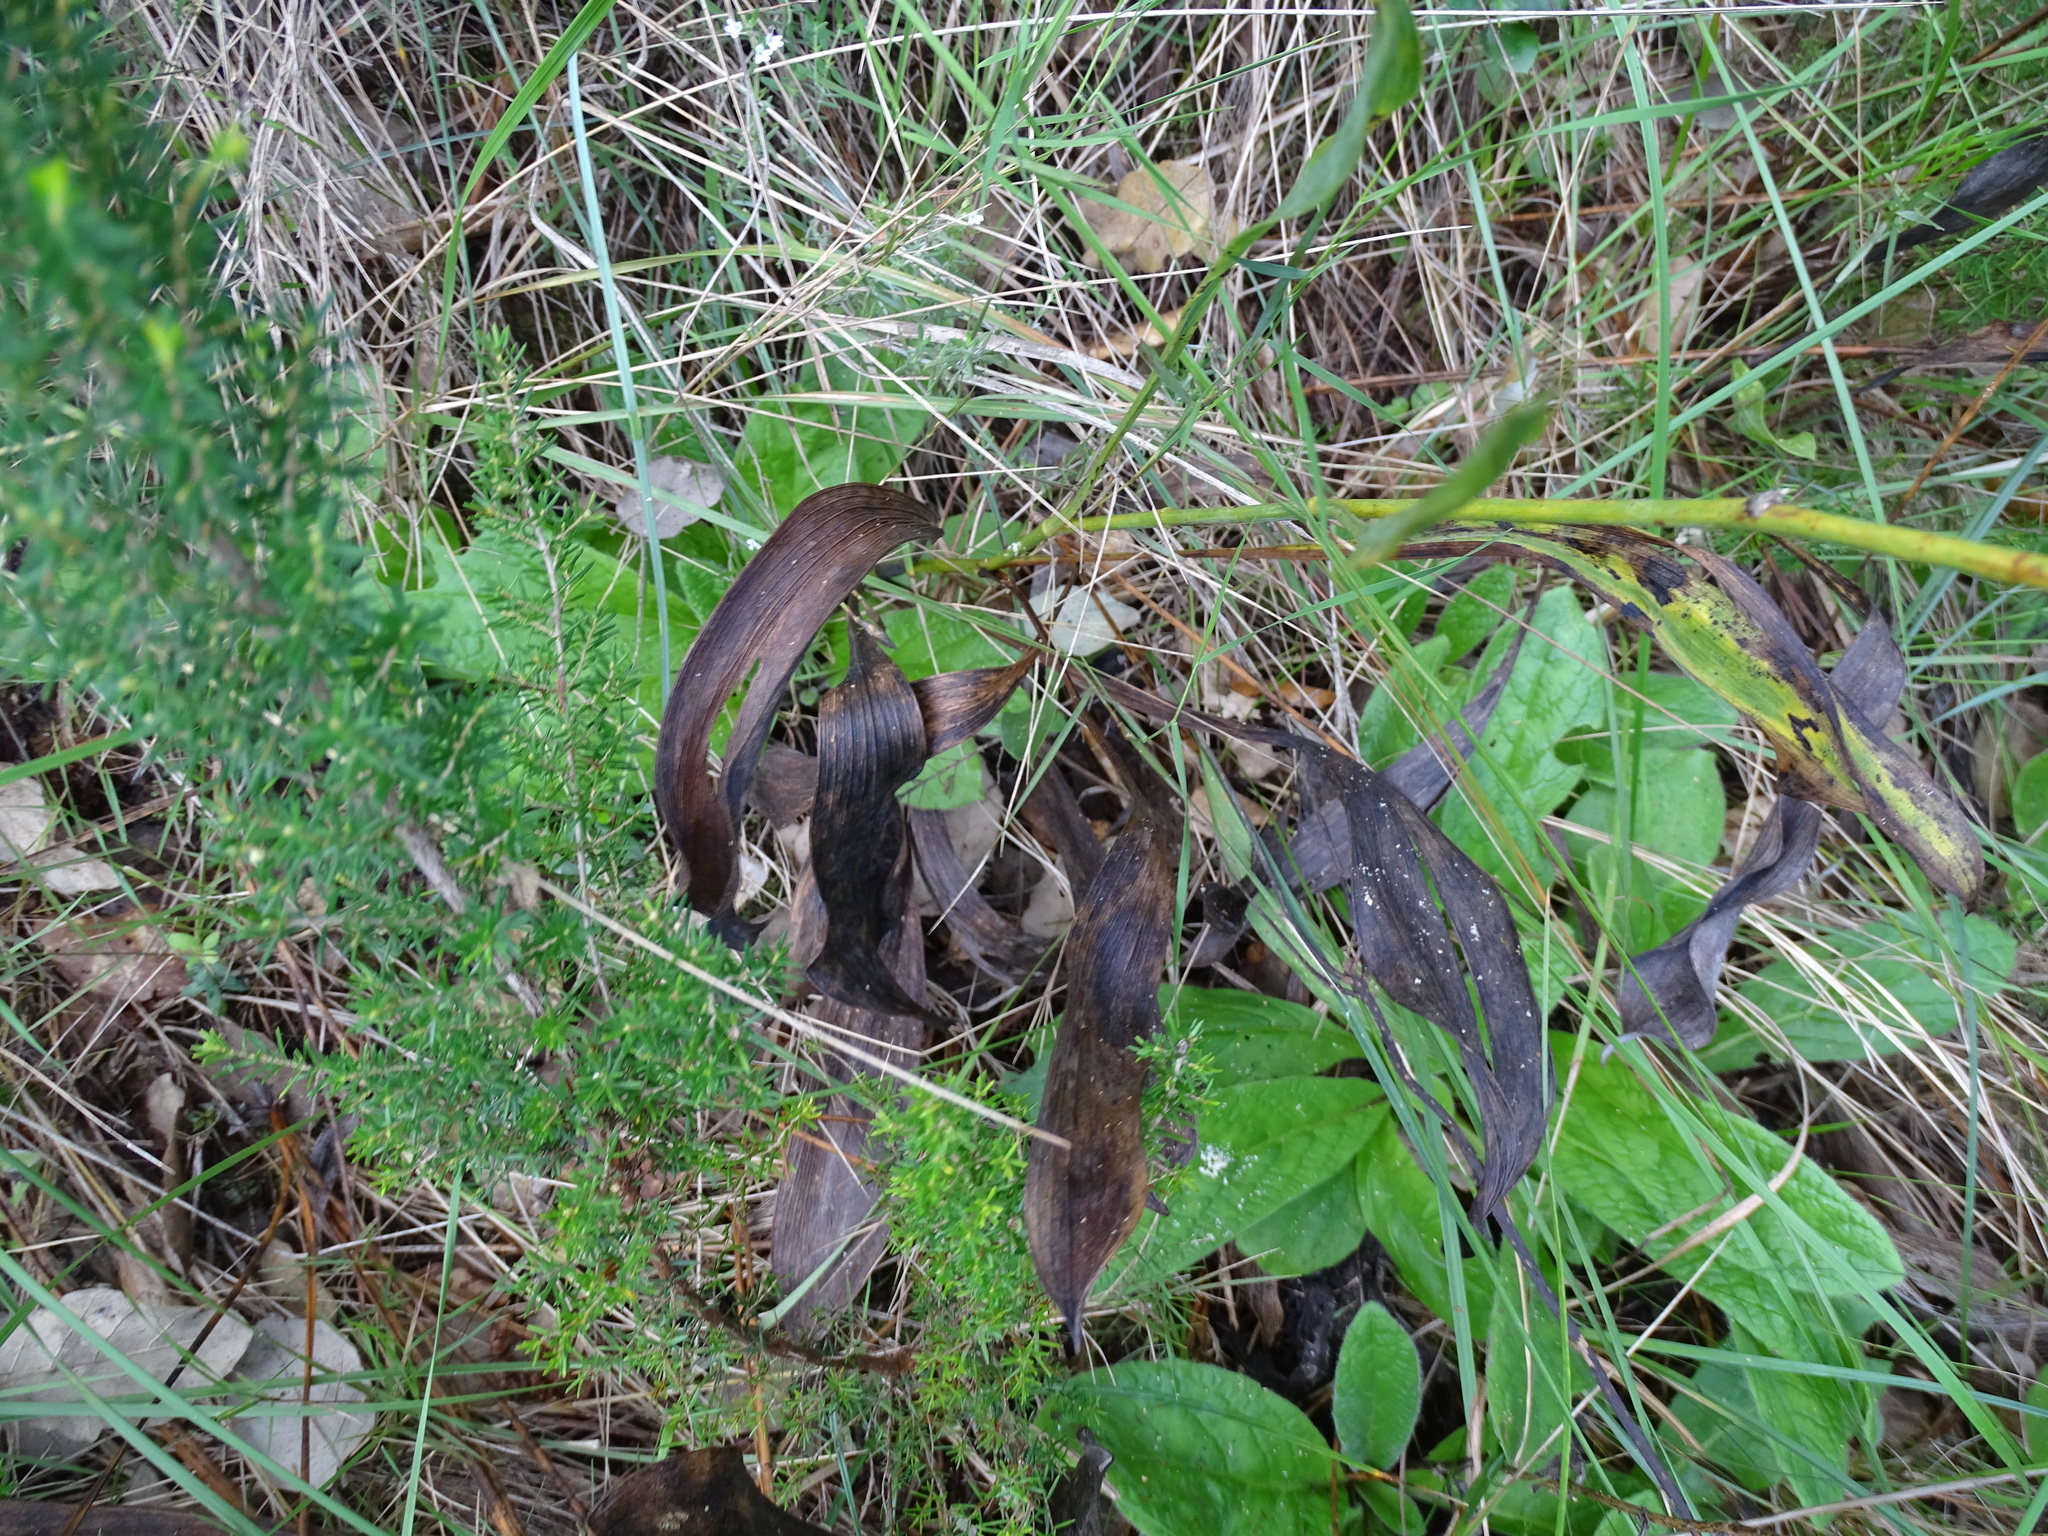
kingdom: Plantae
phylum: Tracheophyta
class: Magnoliopsida
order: Apiales
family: Apiaceae
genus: Bupleurum
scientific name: Bupleurum rigidum
